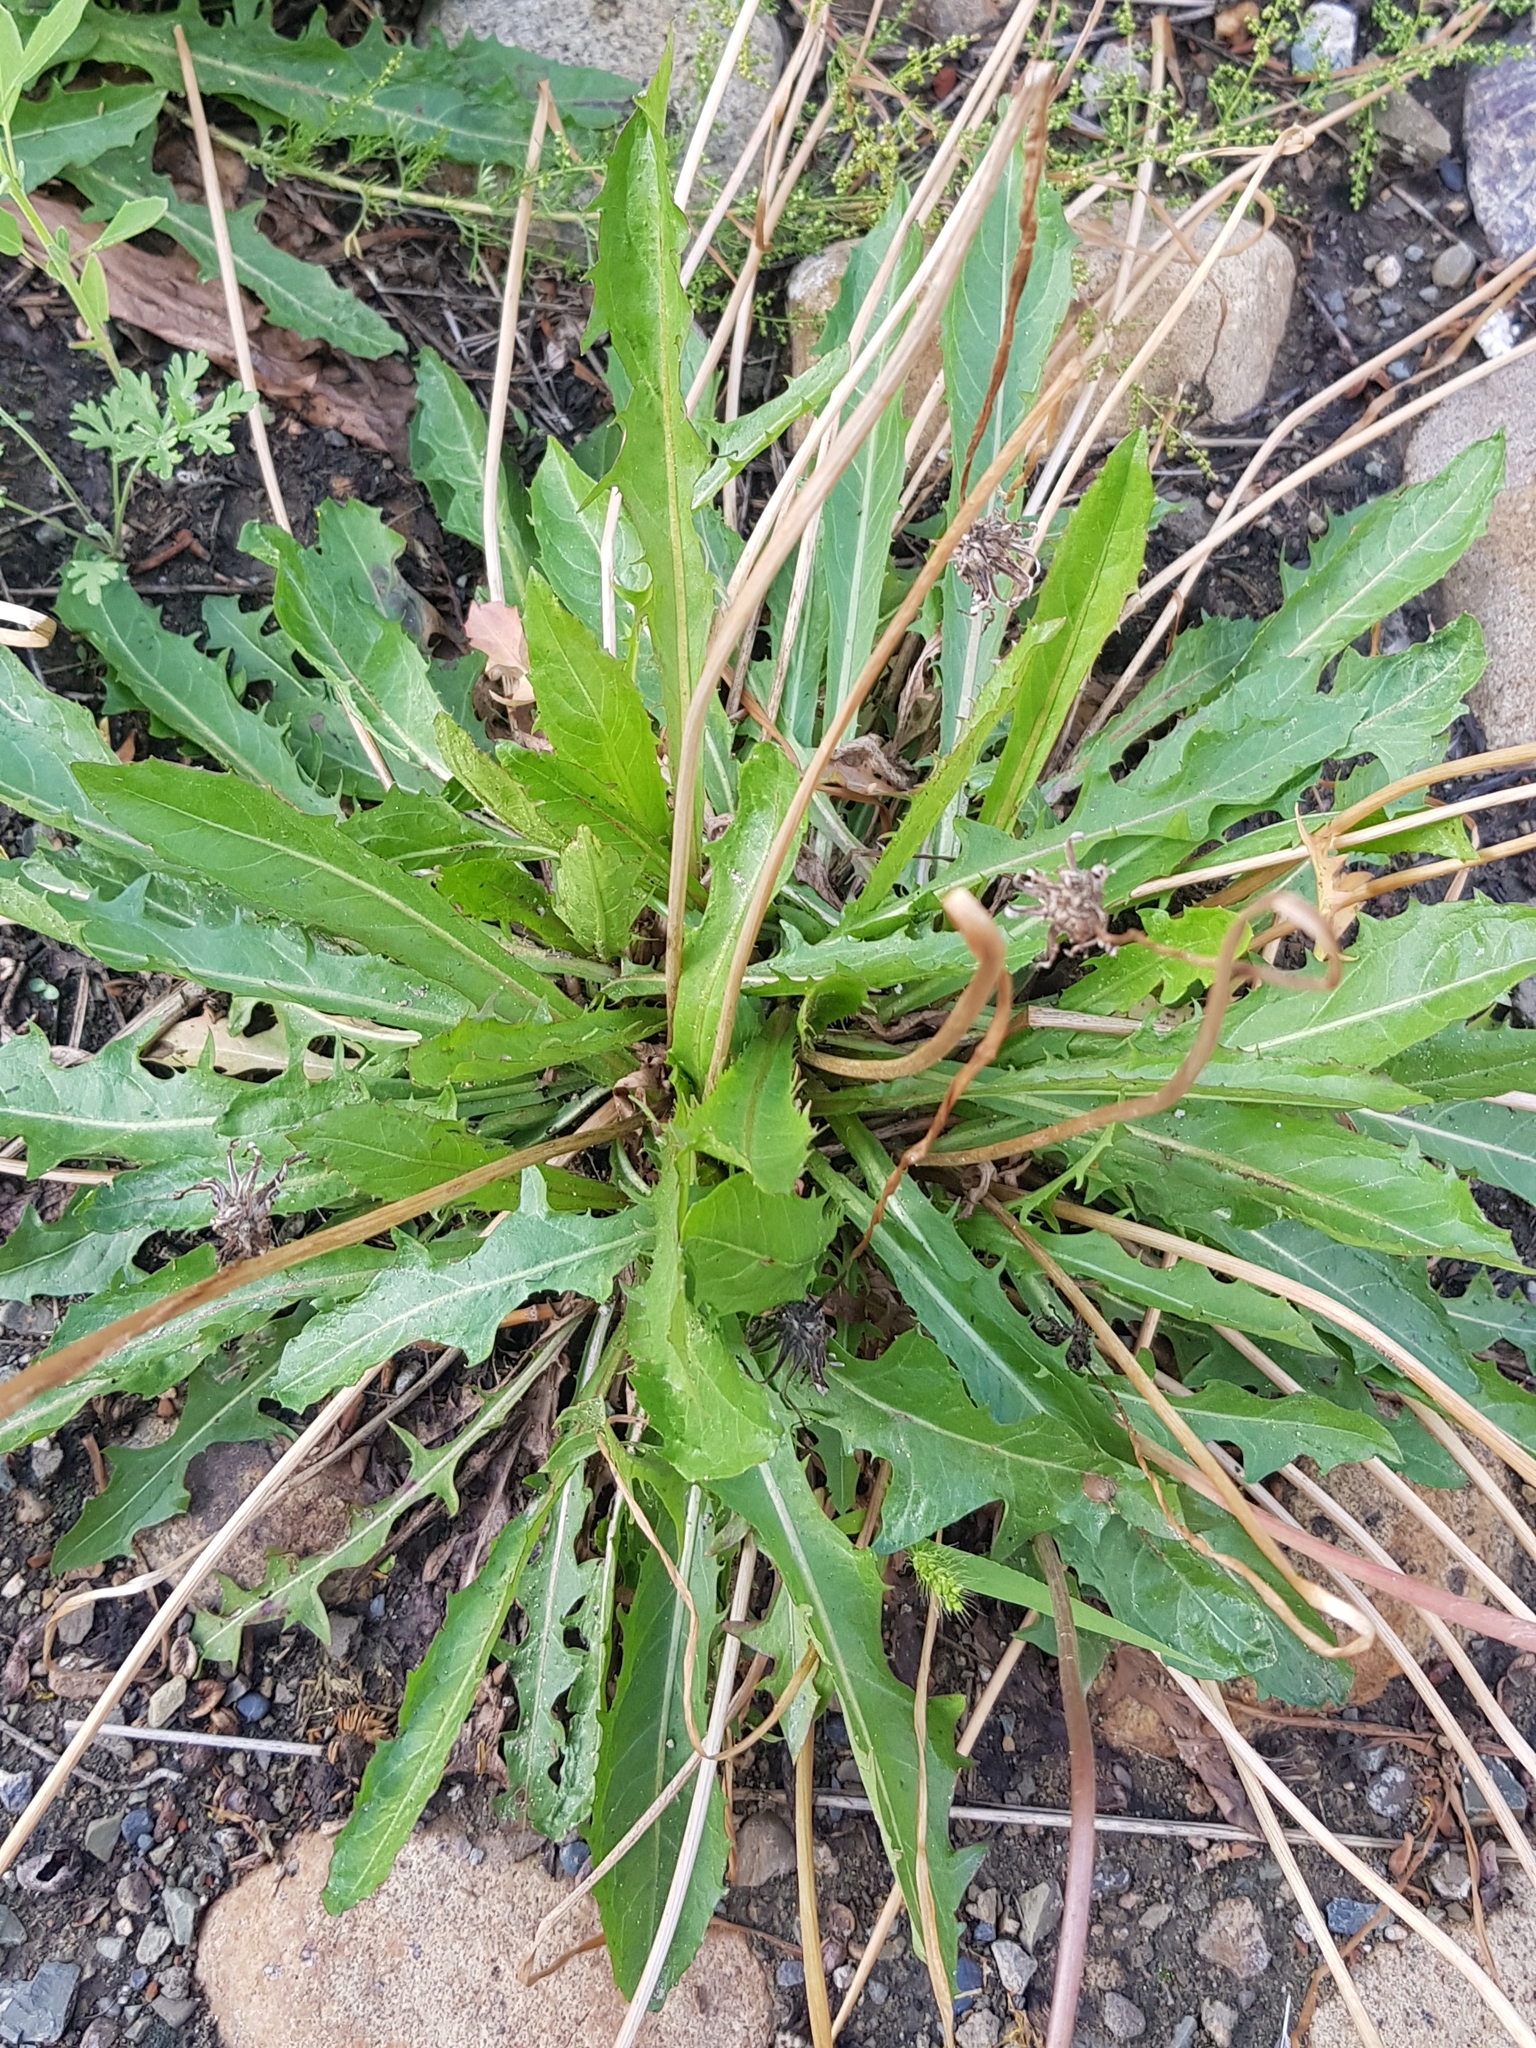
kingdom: Plantae
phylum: Tracheophyta
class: Magnoliopsida
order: Asterales
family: Asteraceae
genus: Taraxacum
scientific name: Taraxacum ceratophorum
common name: Horn-bearing dandelion
